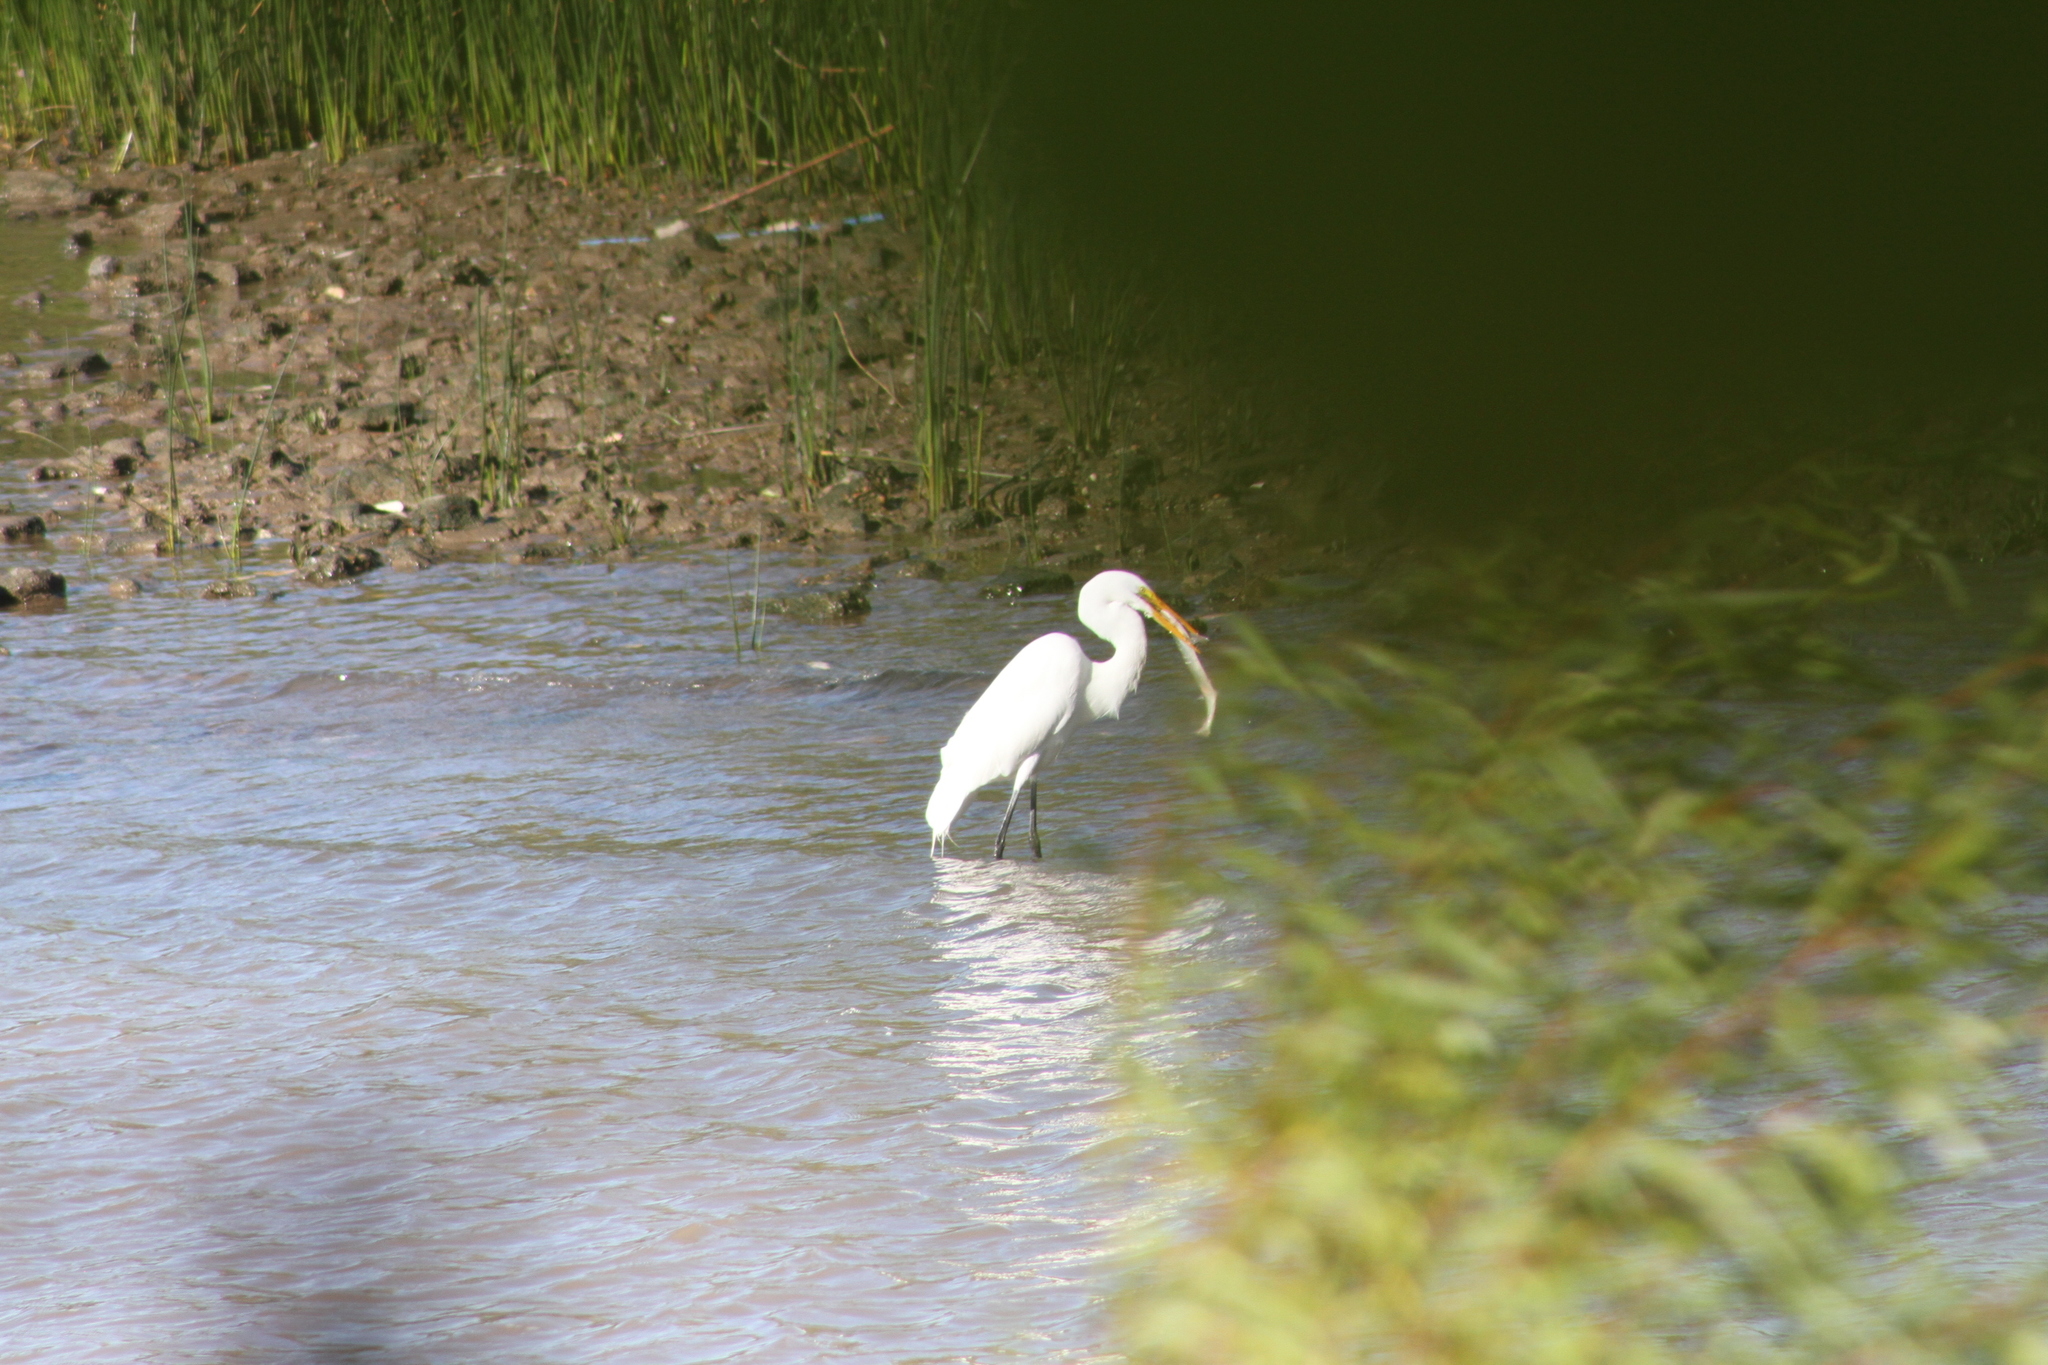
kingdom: Animalia
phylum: Chordata
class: Aves
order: Pelecaniformes
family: Ardeidae
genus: Ardea
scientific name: Ardea alba
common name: Great egret
